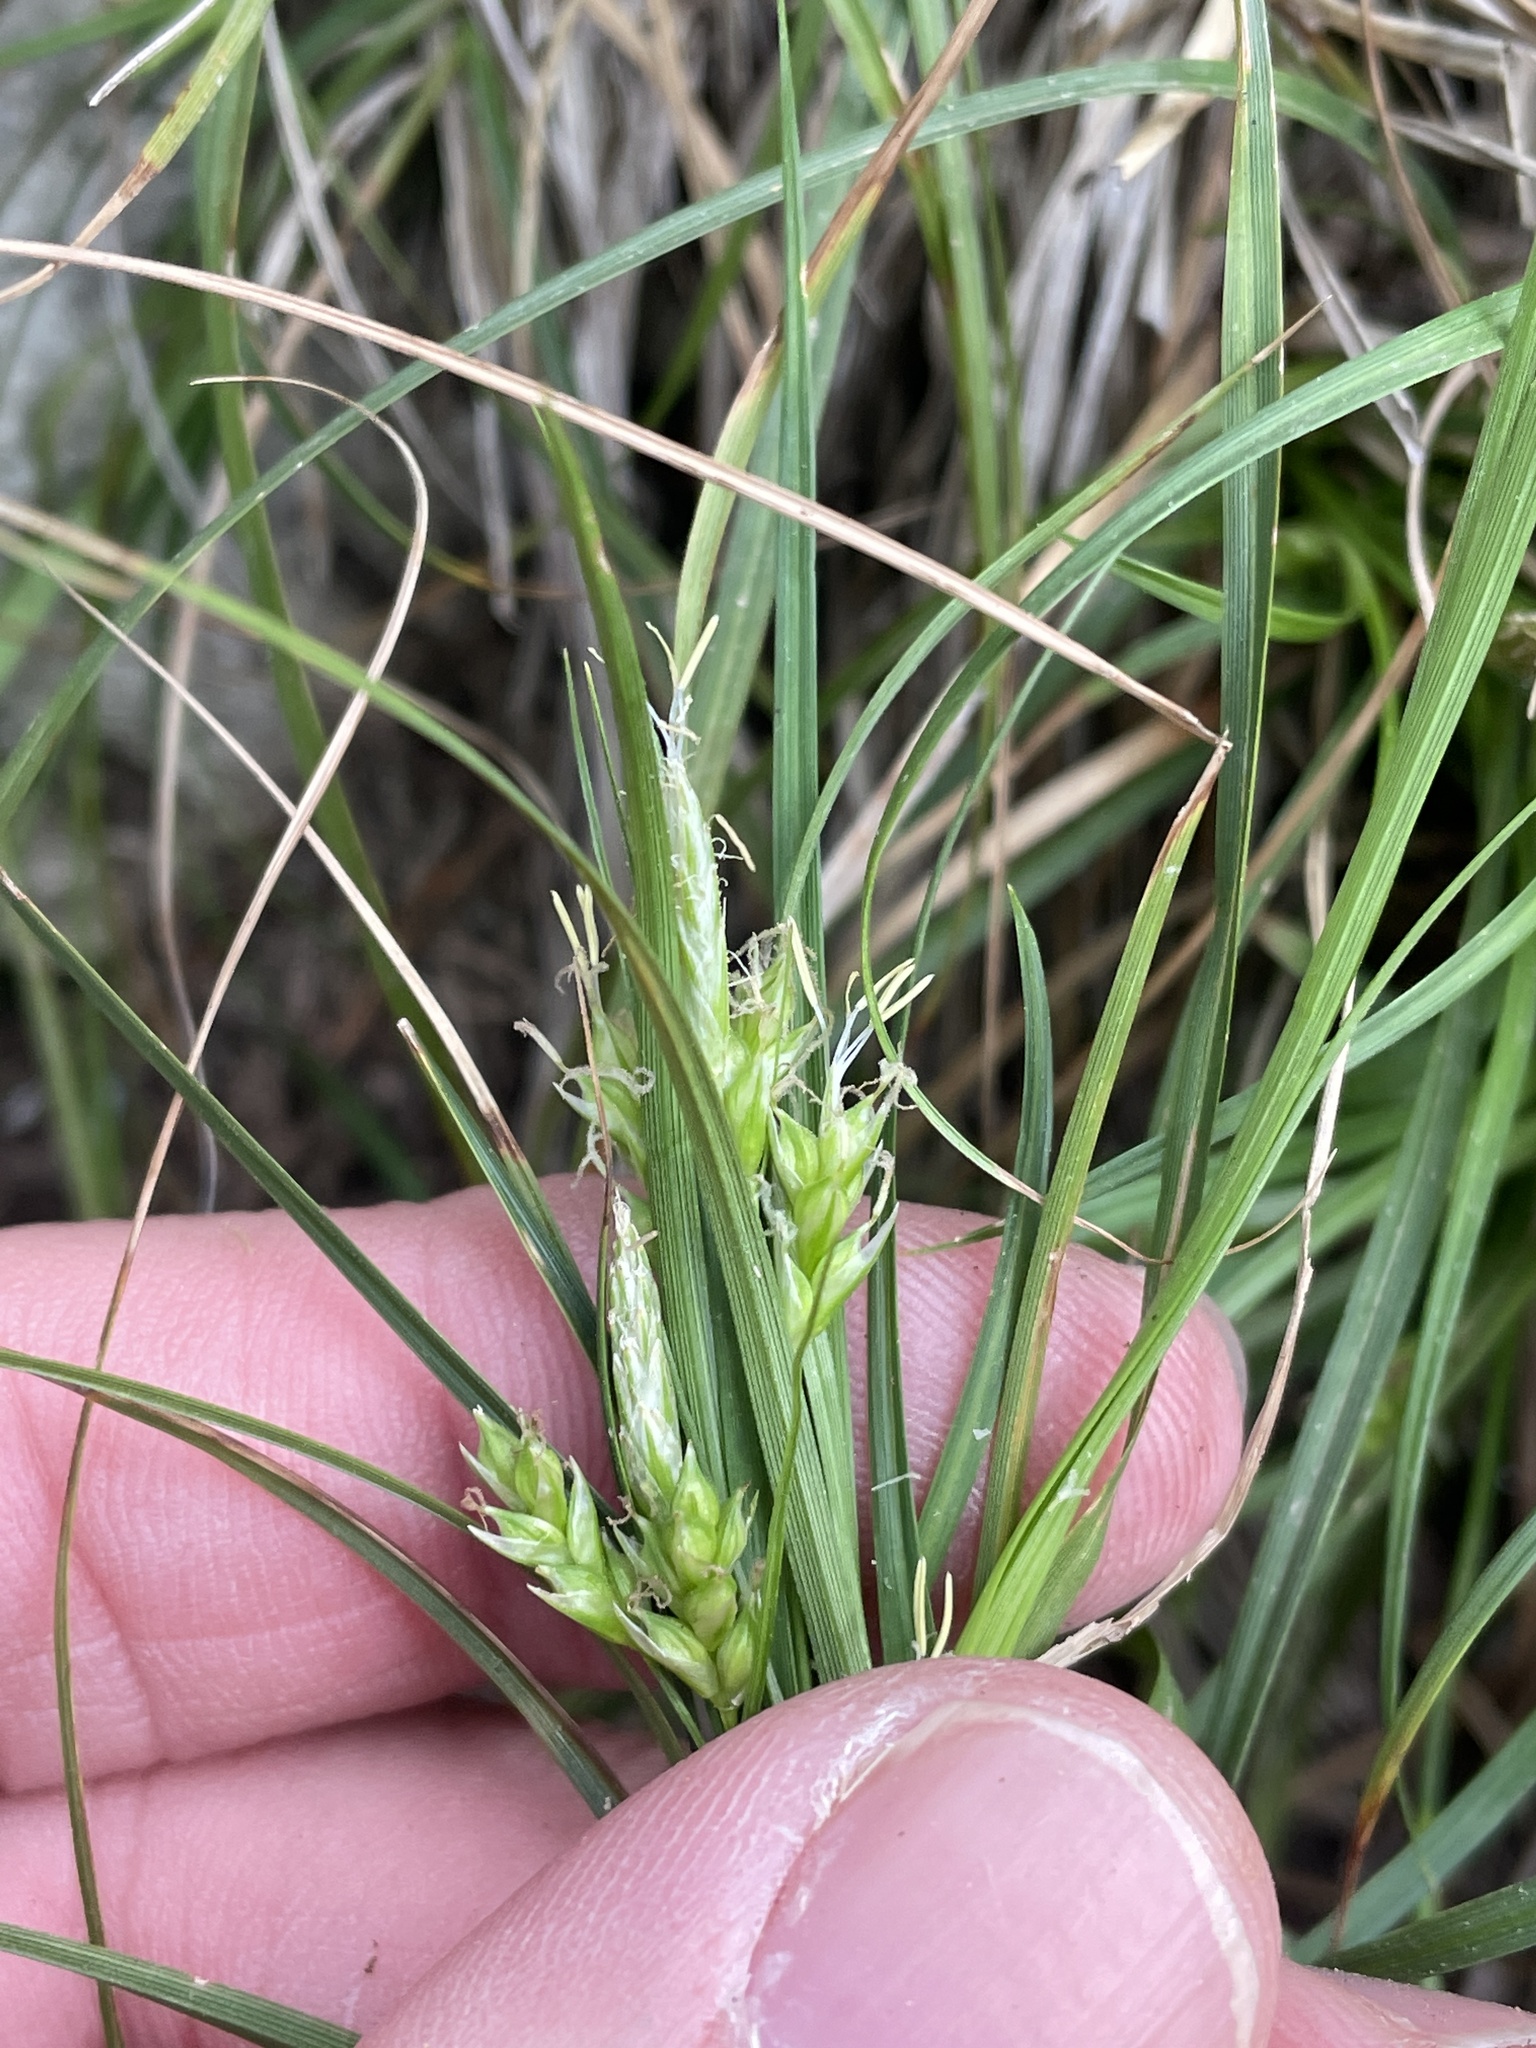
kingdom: Plantae
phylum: Tracheophyta
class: Liliopsida
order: Poales
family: Cyperaceae
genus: Carex
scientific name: Carex planostachys
